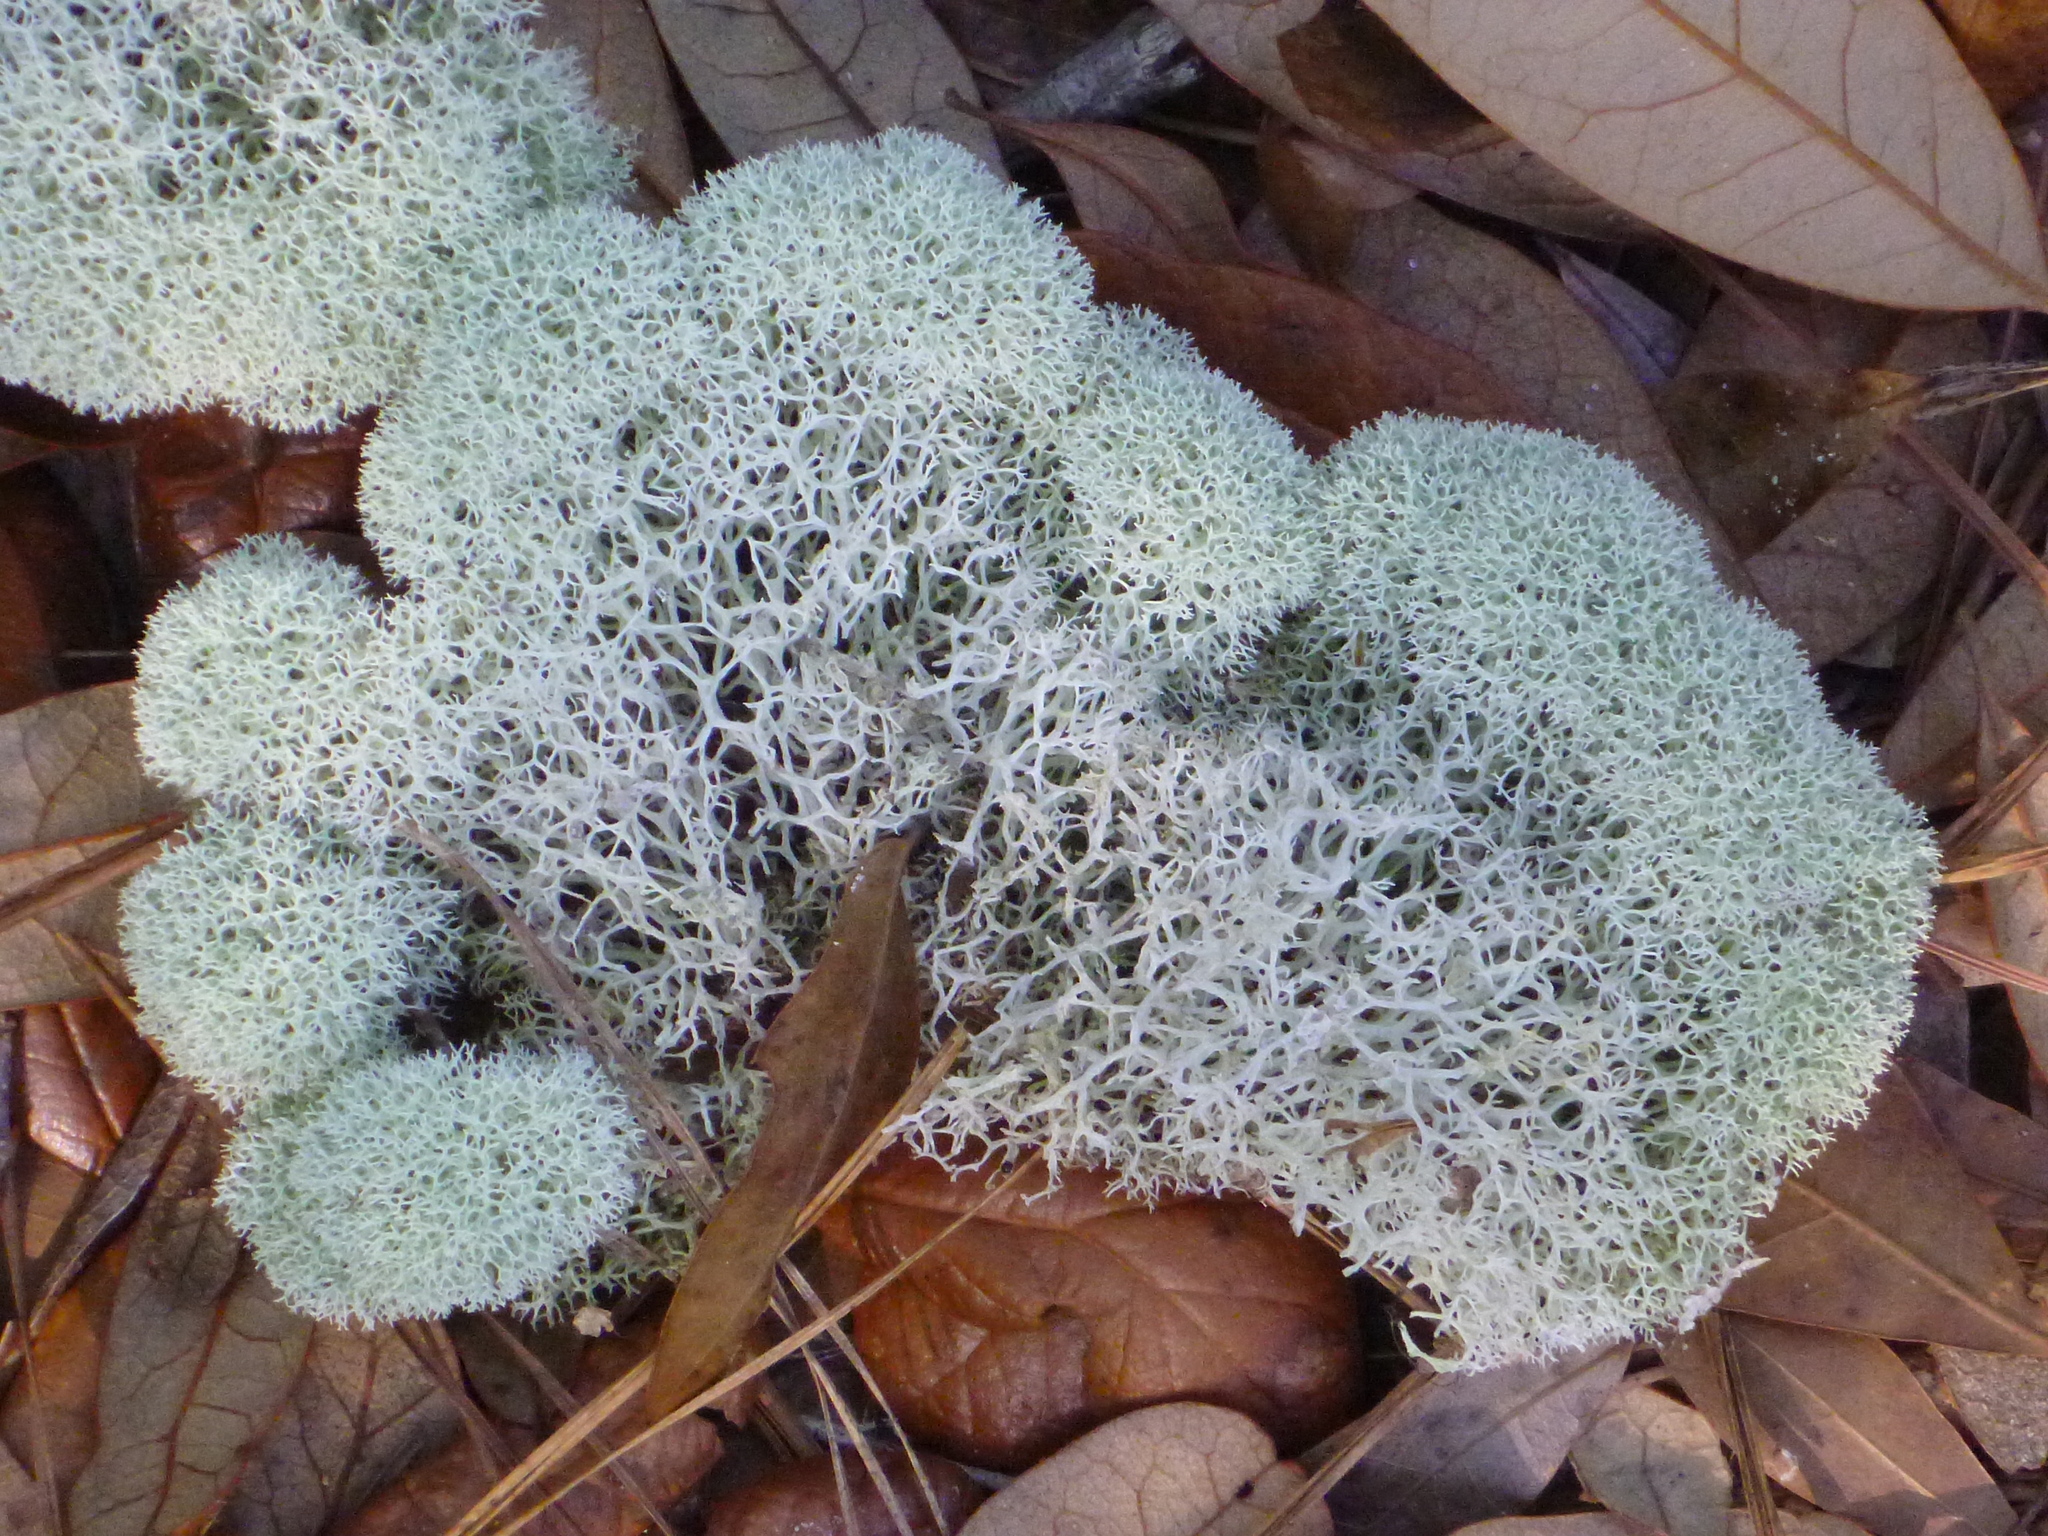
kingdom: Fungi
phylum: Ascomycota
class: Lecanoromycetes
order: Lecanorales
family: Cladoniaceae
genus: Cladonia
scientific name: Cladonia evansii
